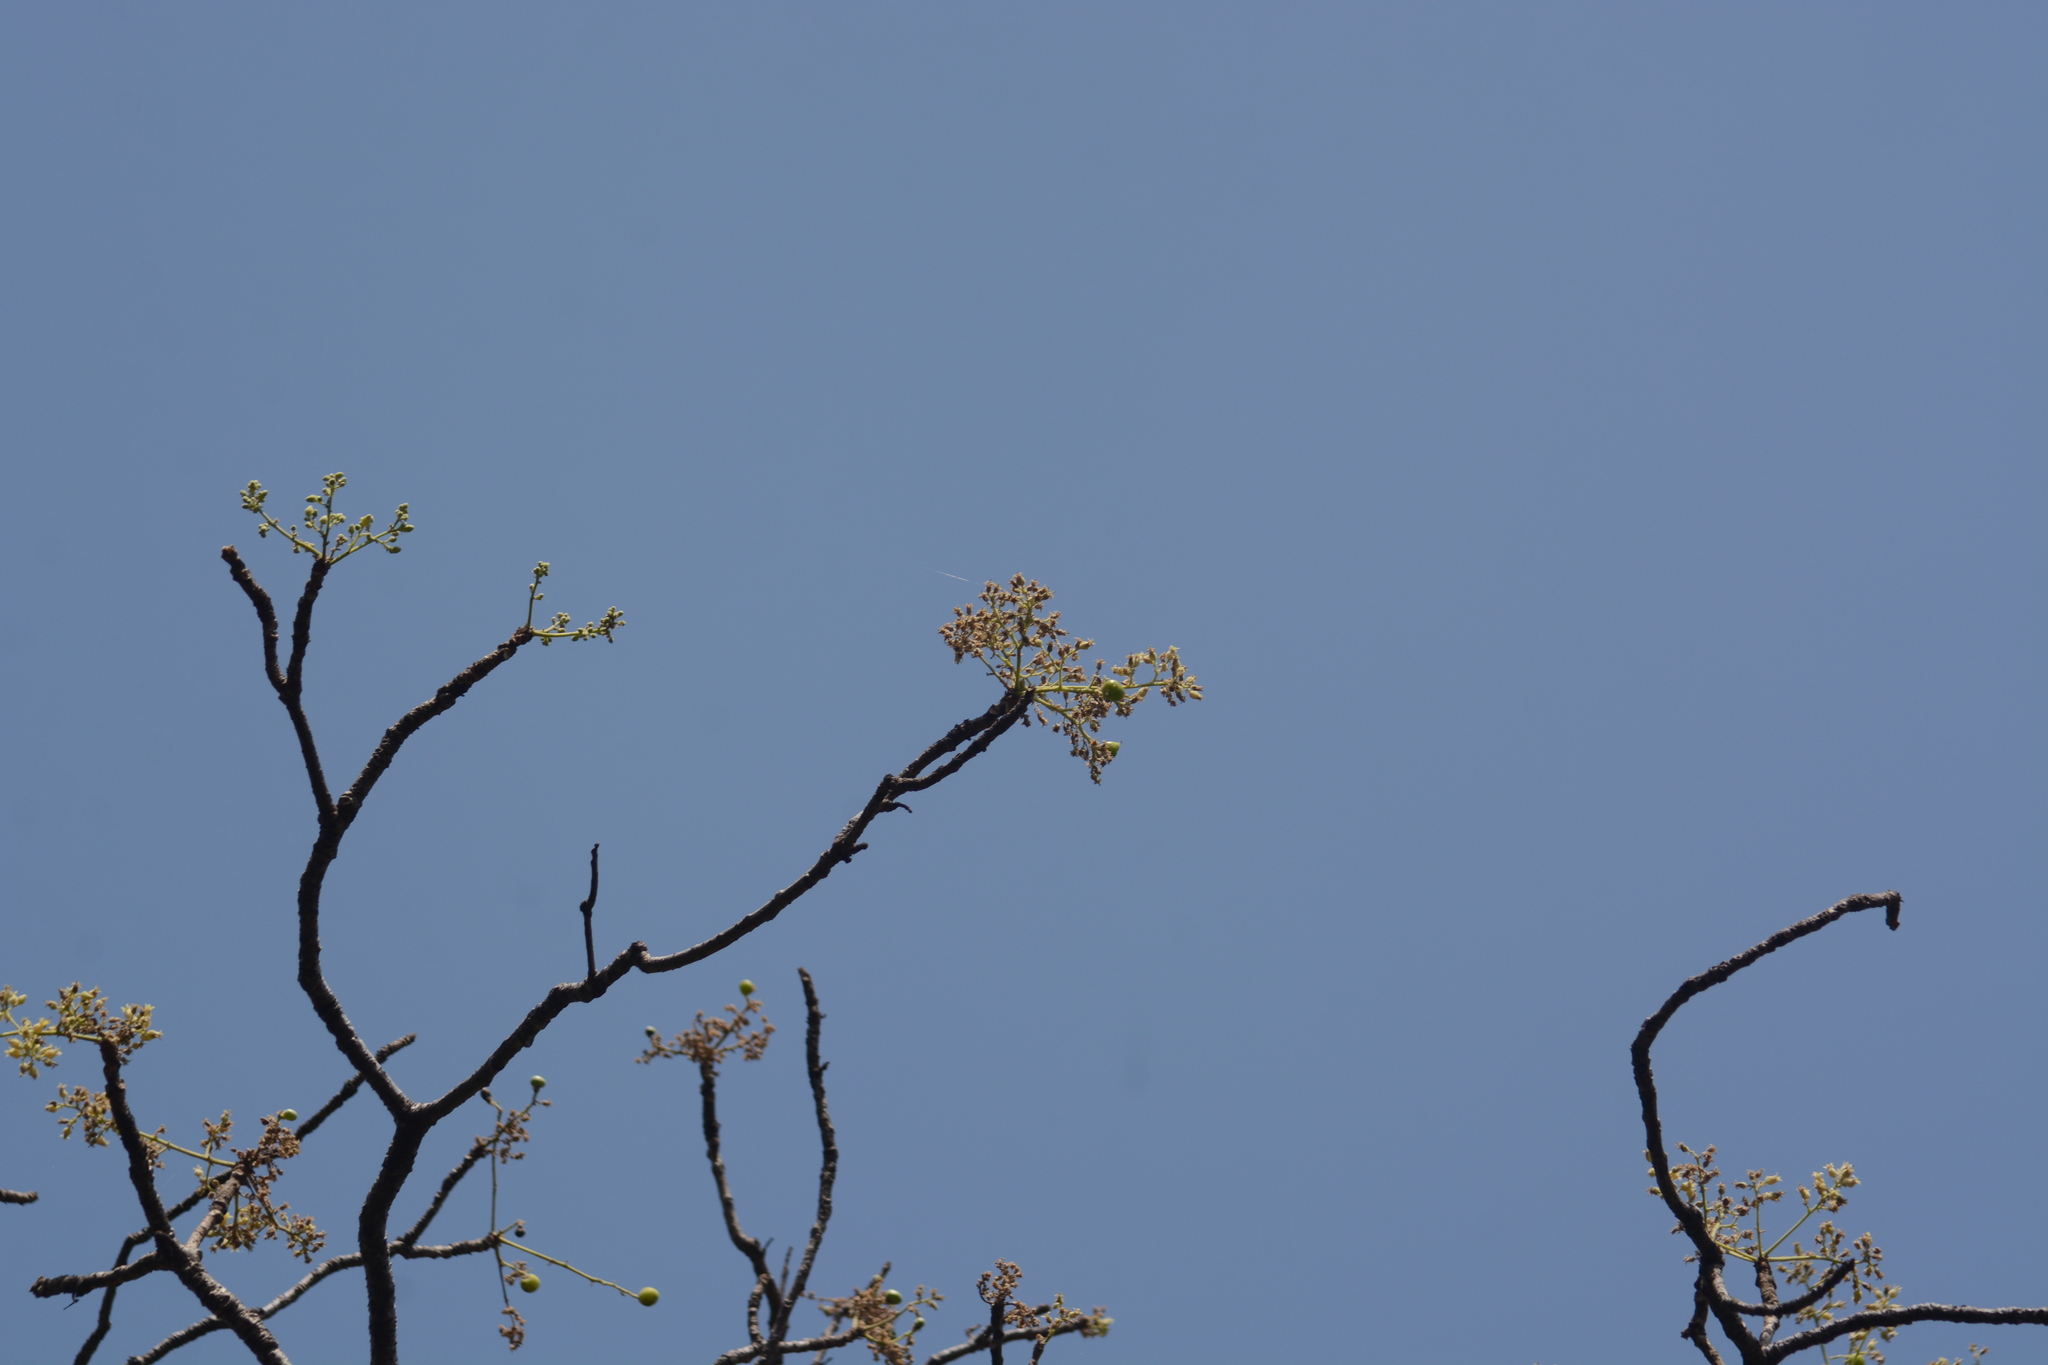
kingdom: Plantae
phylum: Tracheophyta
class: Magnoliopsida
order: Sapindales
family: Burseraceae
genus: Garuga
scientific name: Garuga pinnata
